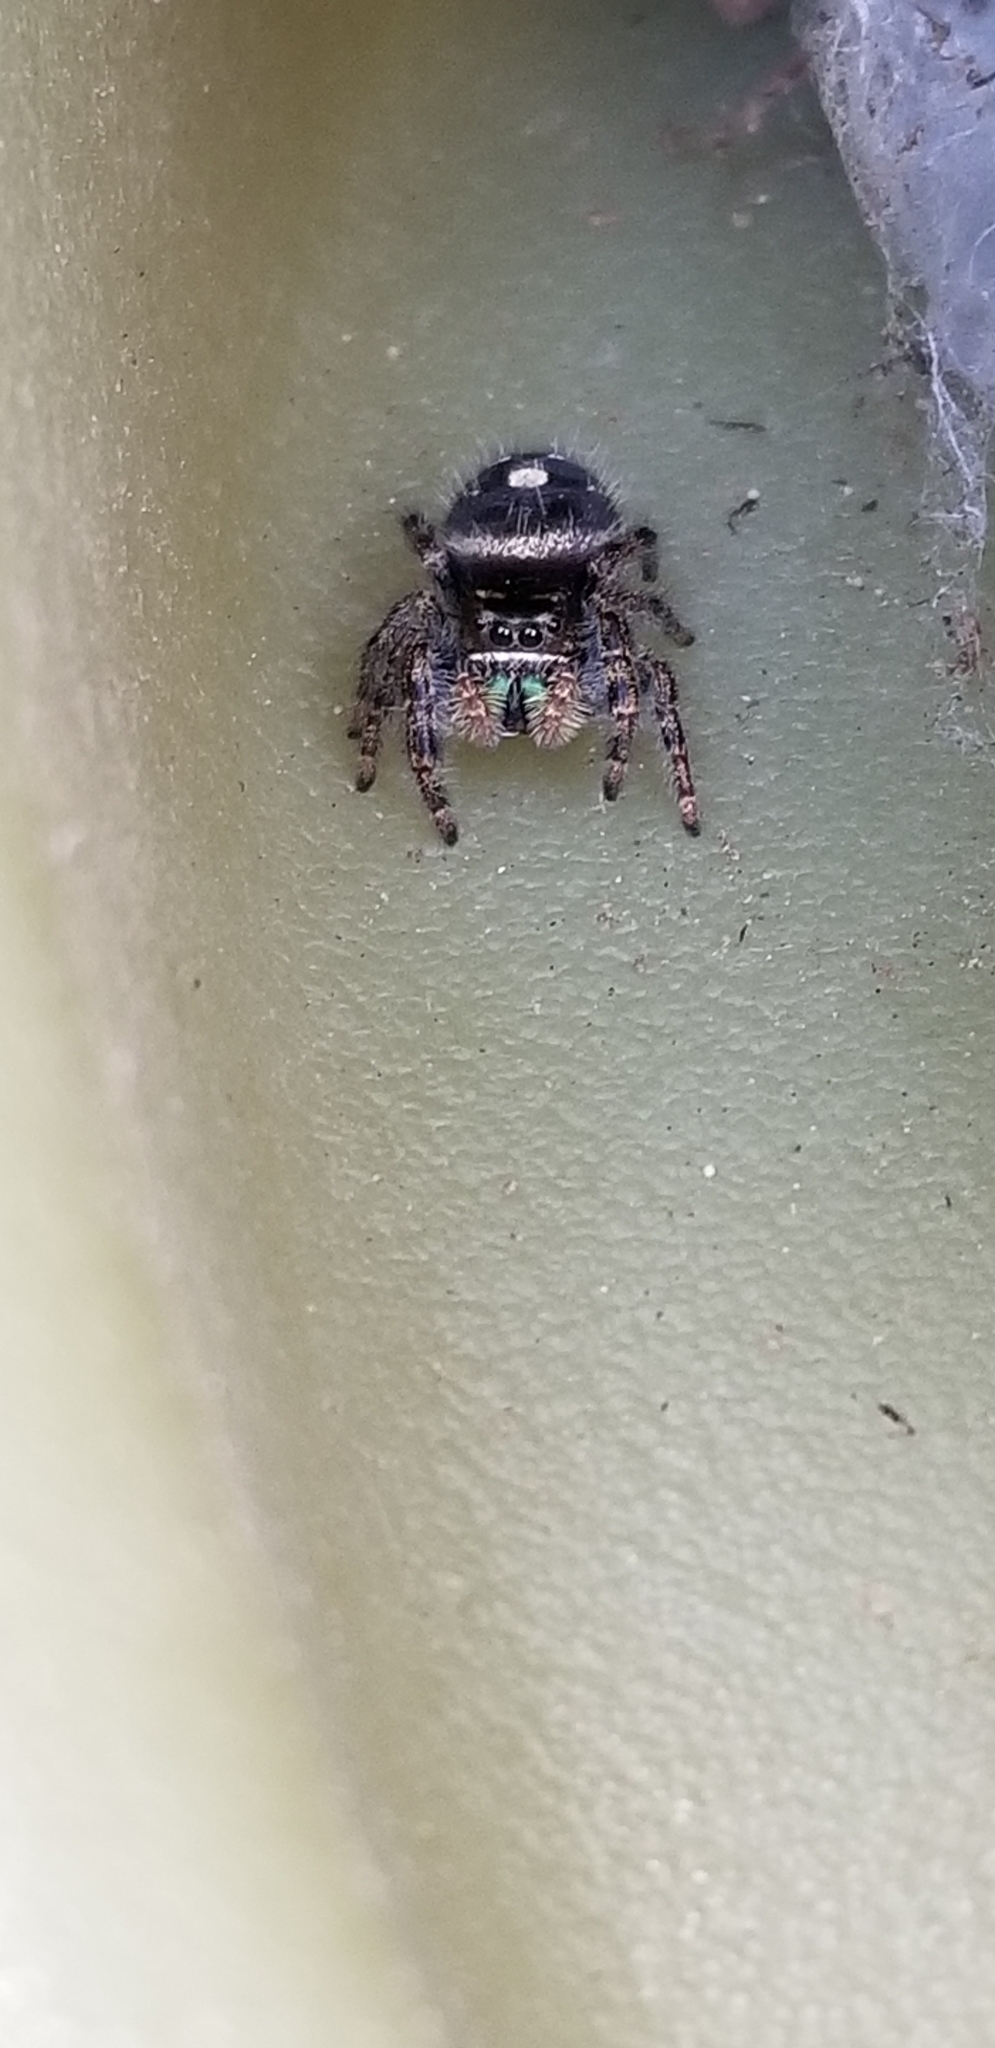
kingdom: Animalia
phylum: Arthropoda
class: Arachnida
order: Araneae
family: Salticidae
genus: Phidippus
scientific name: Phidippus audax
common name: Bold jumper
